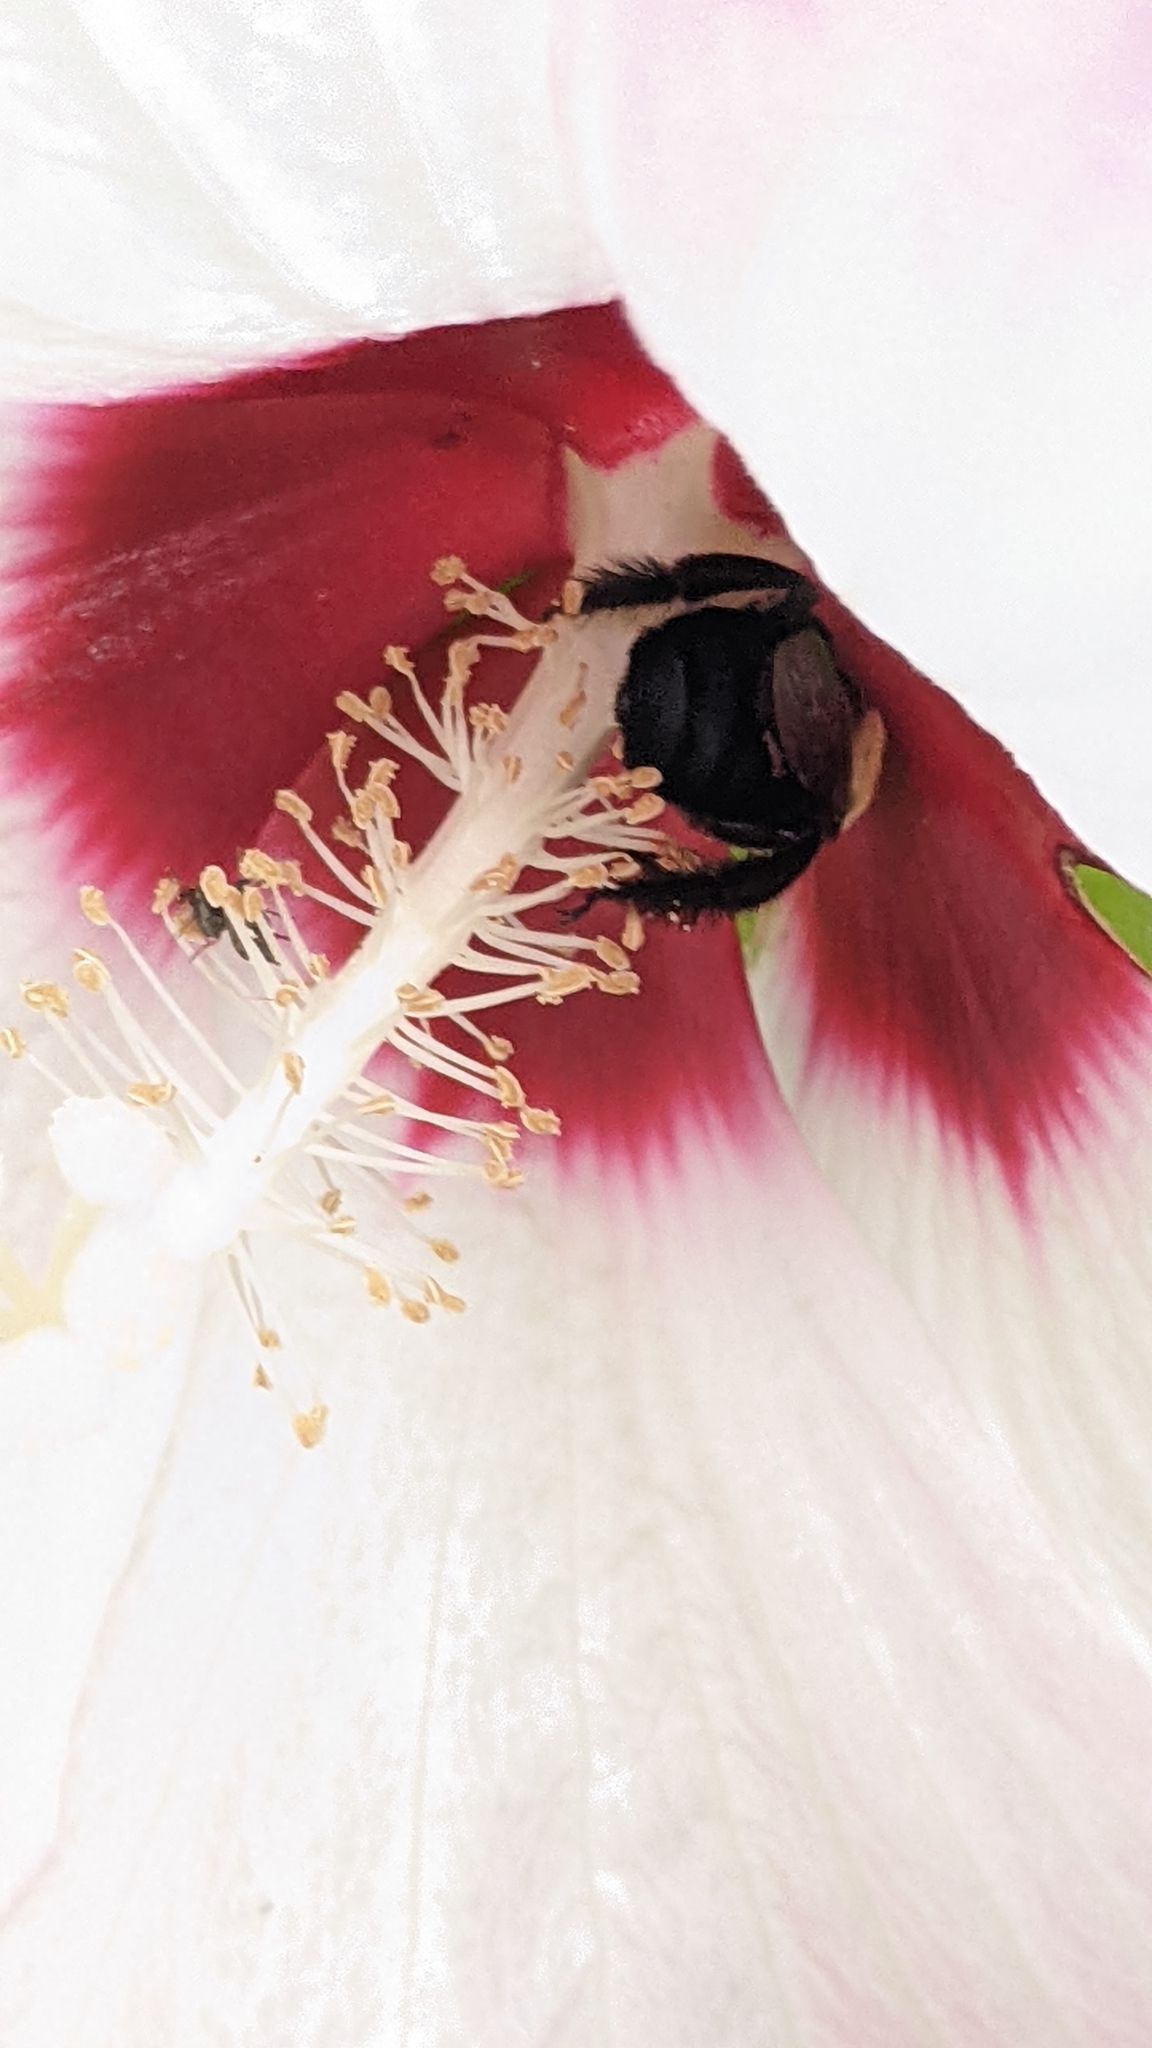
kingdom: Animalia
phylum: Arthropoda
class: Insecta
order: Hymenoptera
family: Apidae
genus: Ptilothrix
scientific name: Ptilothrix bombiformis
